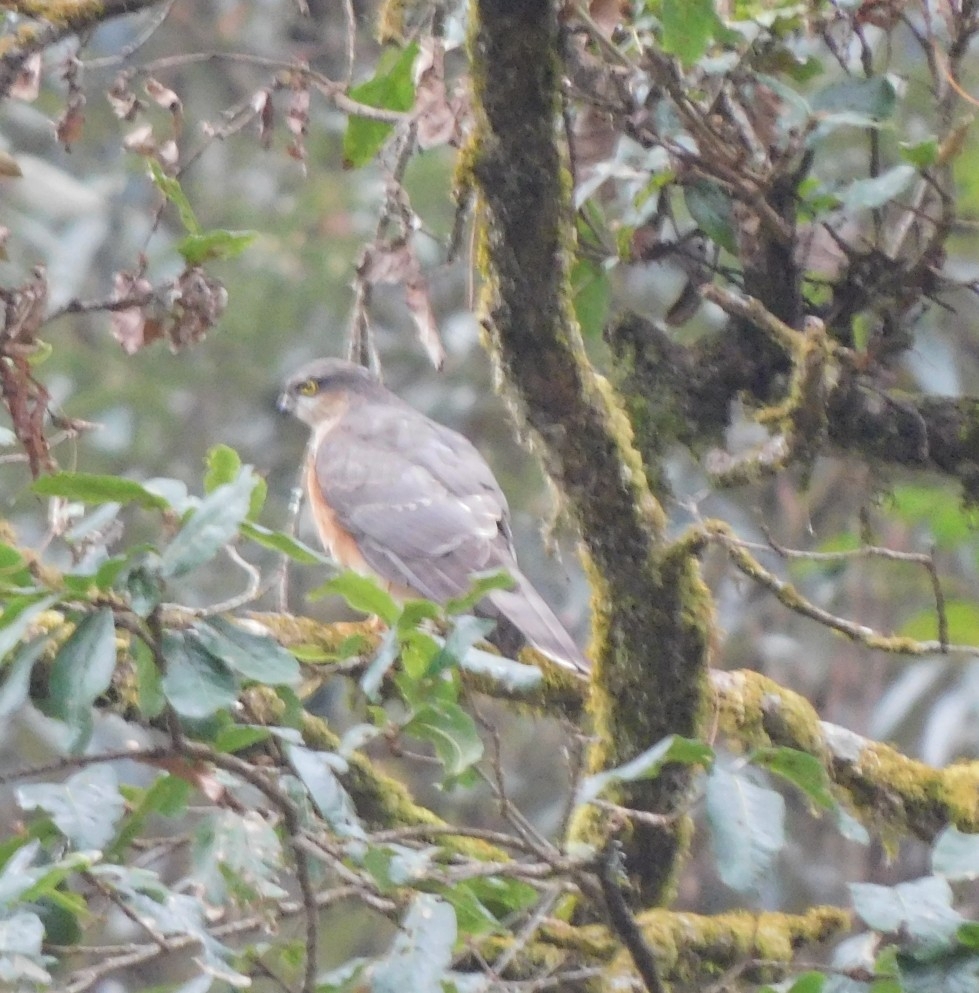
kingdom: Animalia
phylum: Chordata
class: Aves
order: Accipitriformes
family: Accipitridae
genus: Accipiter
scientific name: Accipiter nisus
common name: Eurasian sparrowhawk
